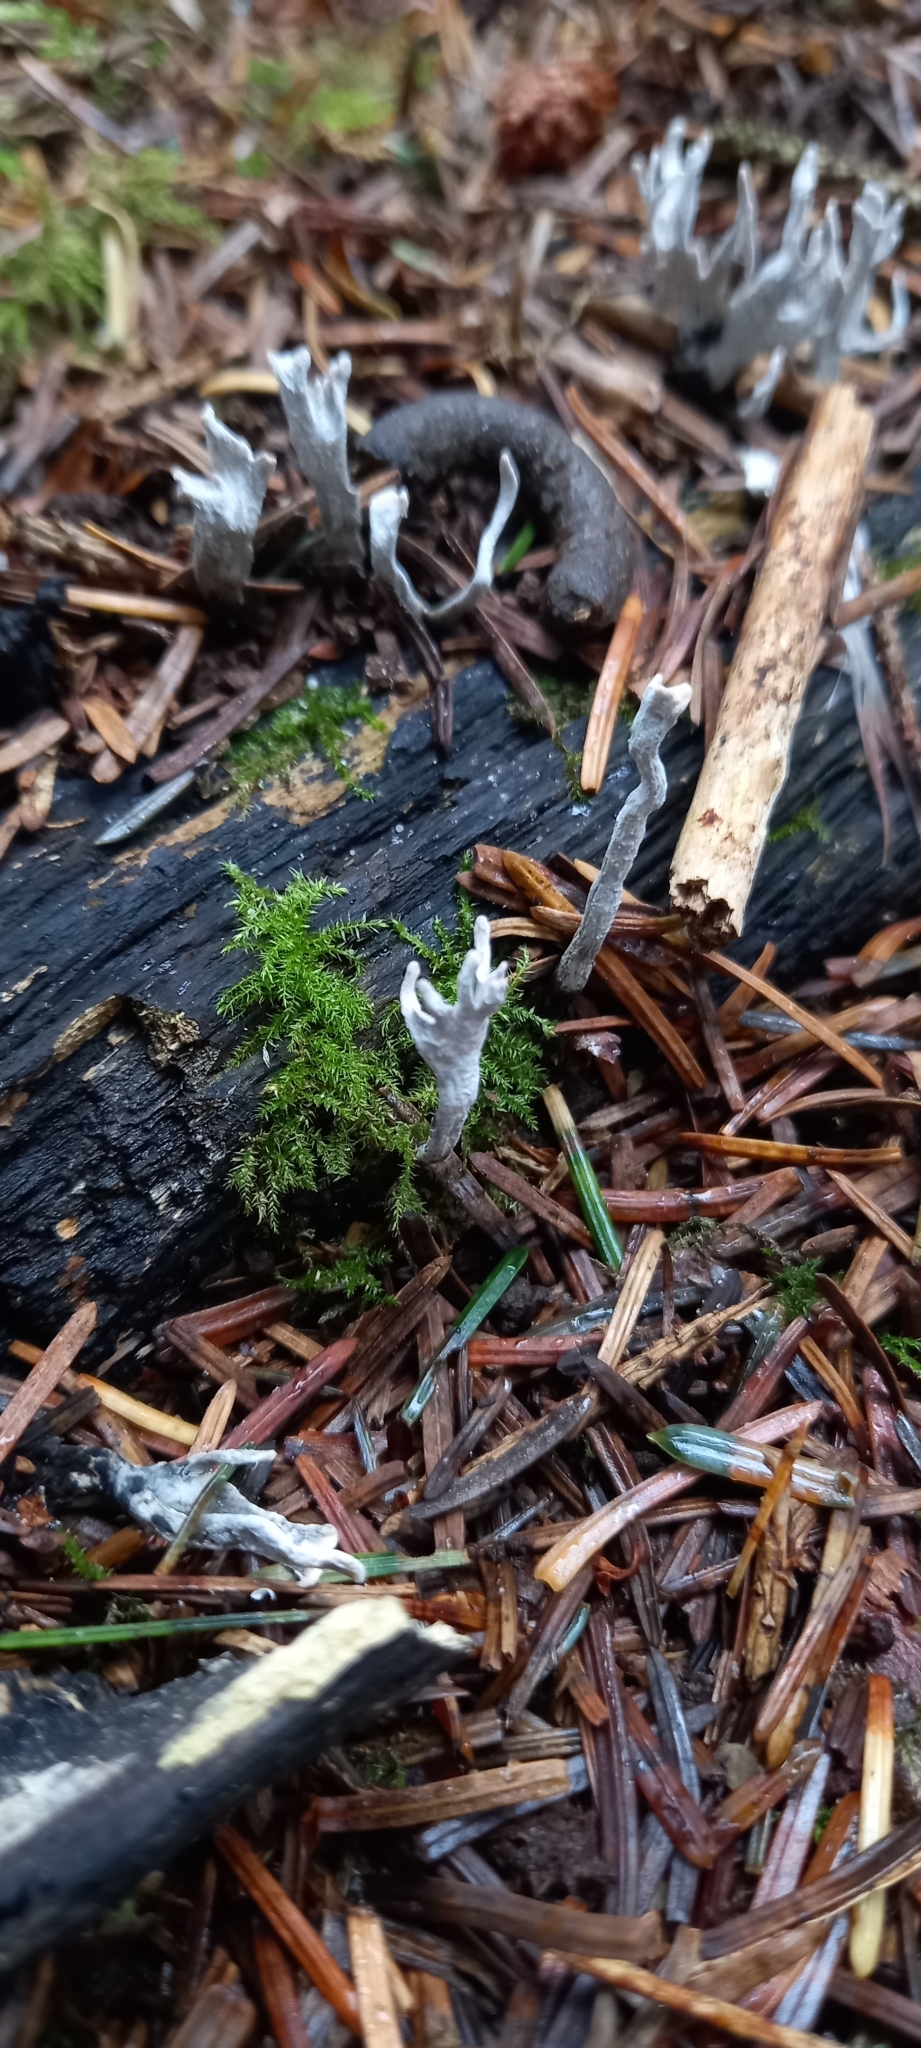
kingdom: Fungi
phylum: Ascomycota
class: Sordariomycetes
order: Xylariales
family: Xylariaceae
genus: Xylaria
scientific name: Xylaria hypoxylon
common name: Candle-snuff fungus
